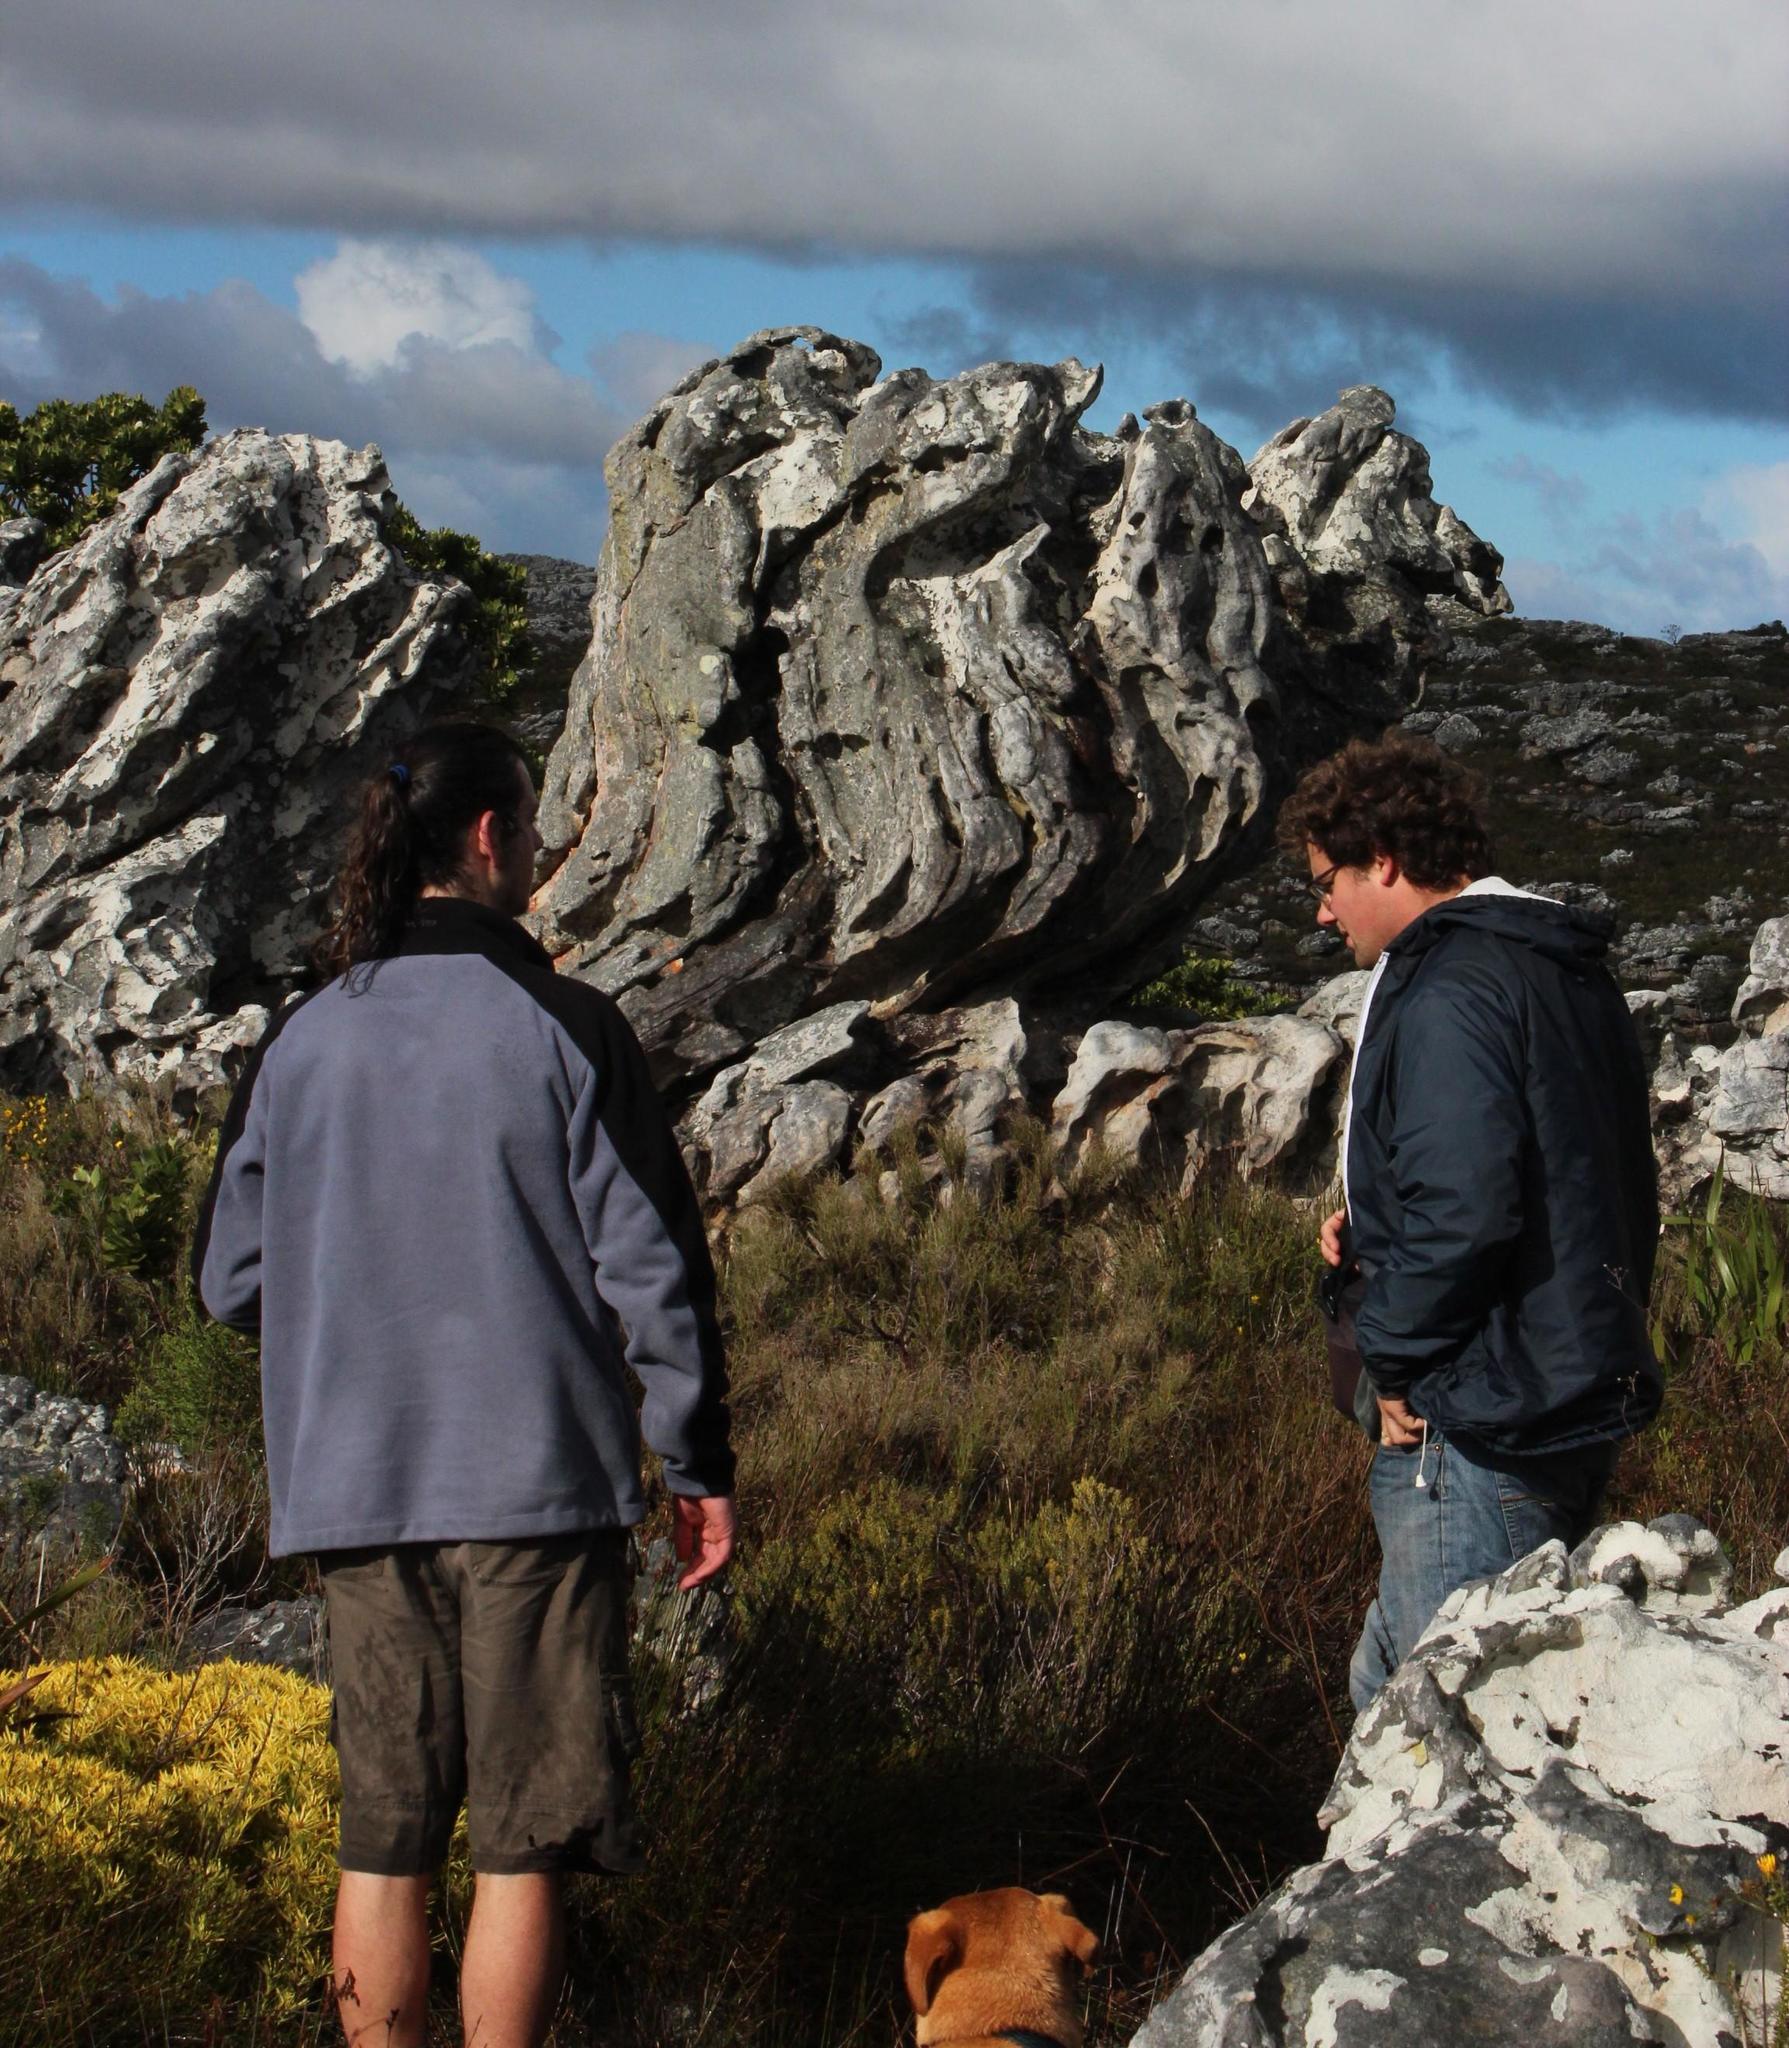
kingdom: Plantae
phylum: Tracheophyta
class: Magnoliopsida
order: Malpighiales
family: Euphorbiaceae
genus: Euphorbia
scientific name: Euphorbia tuberosa
